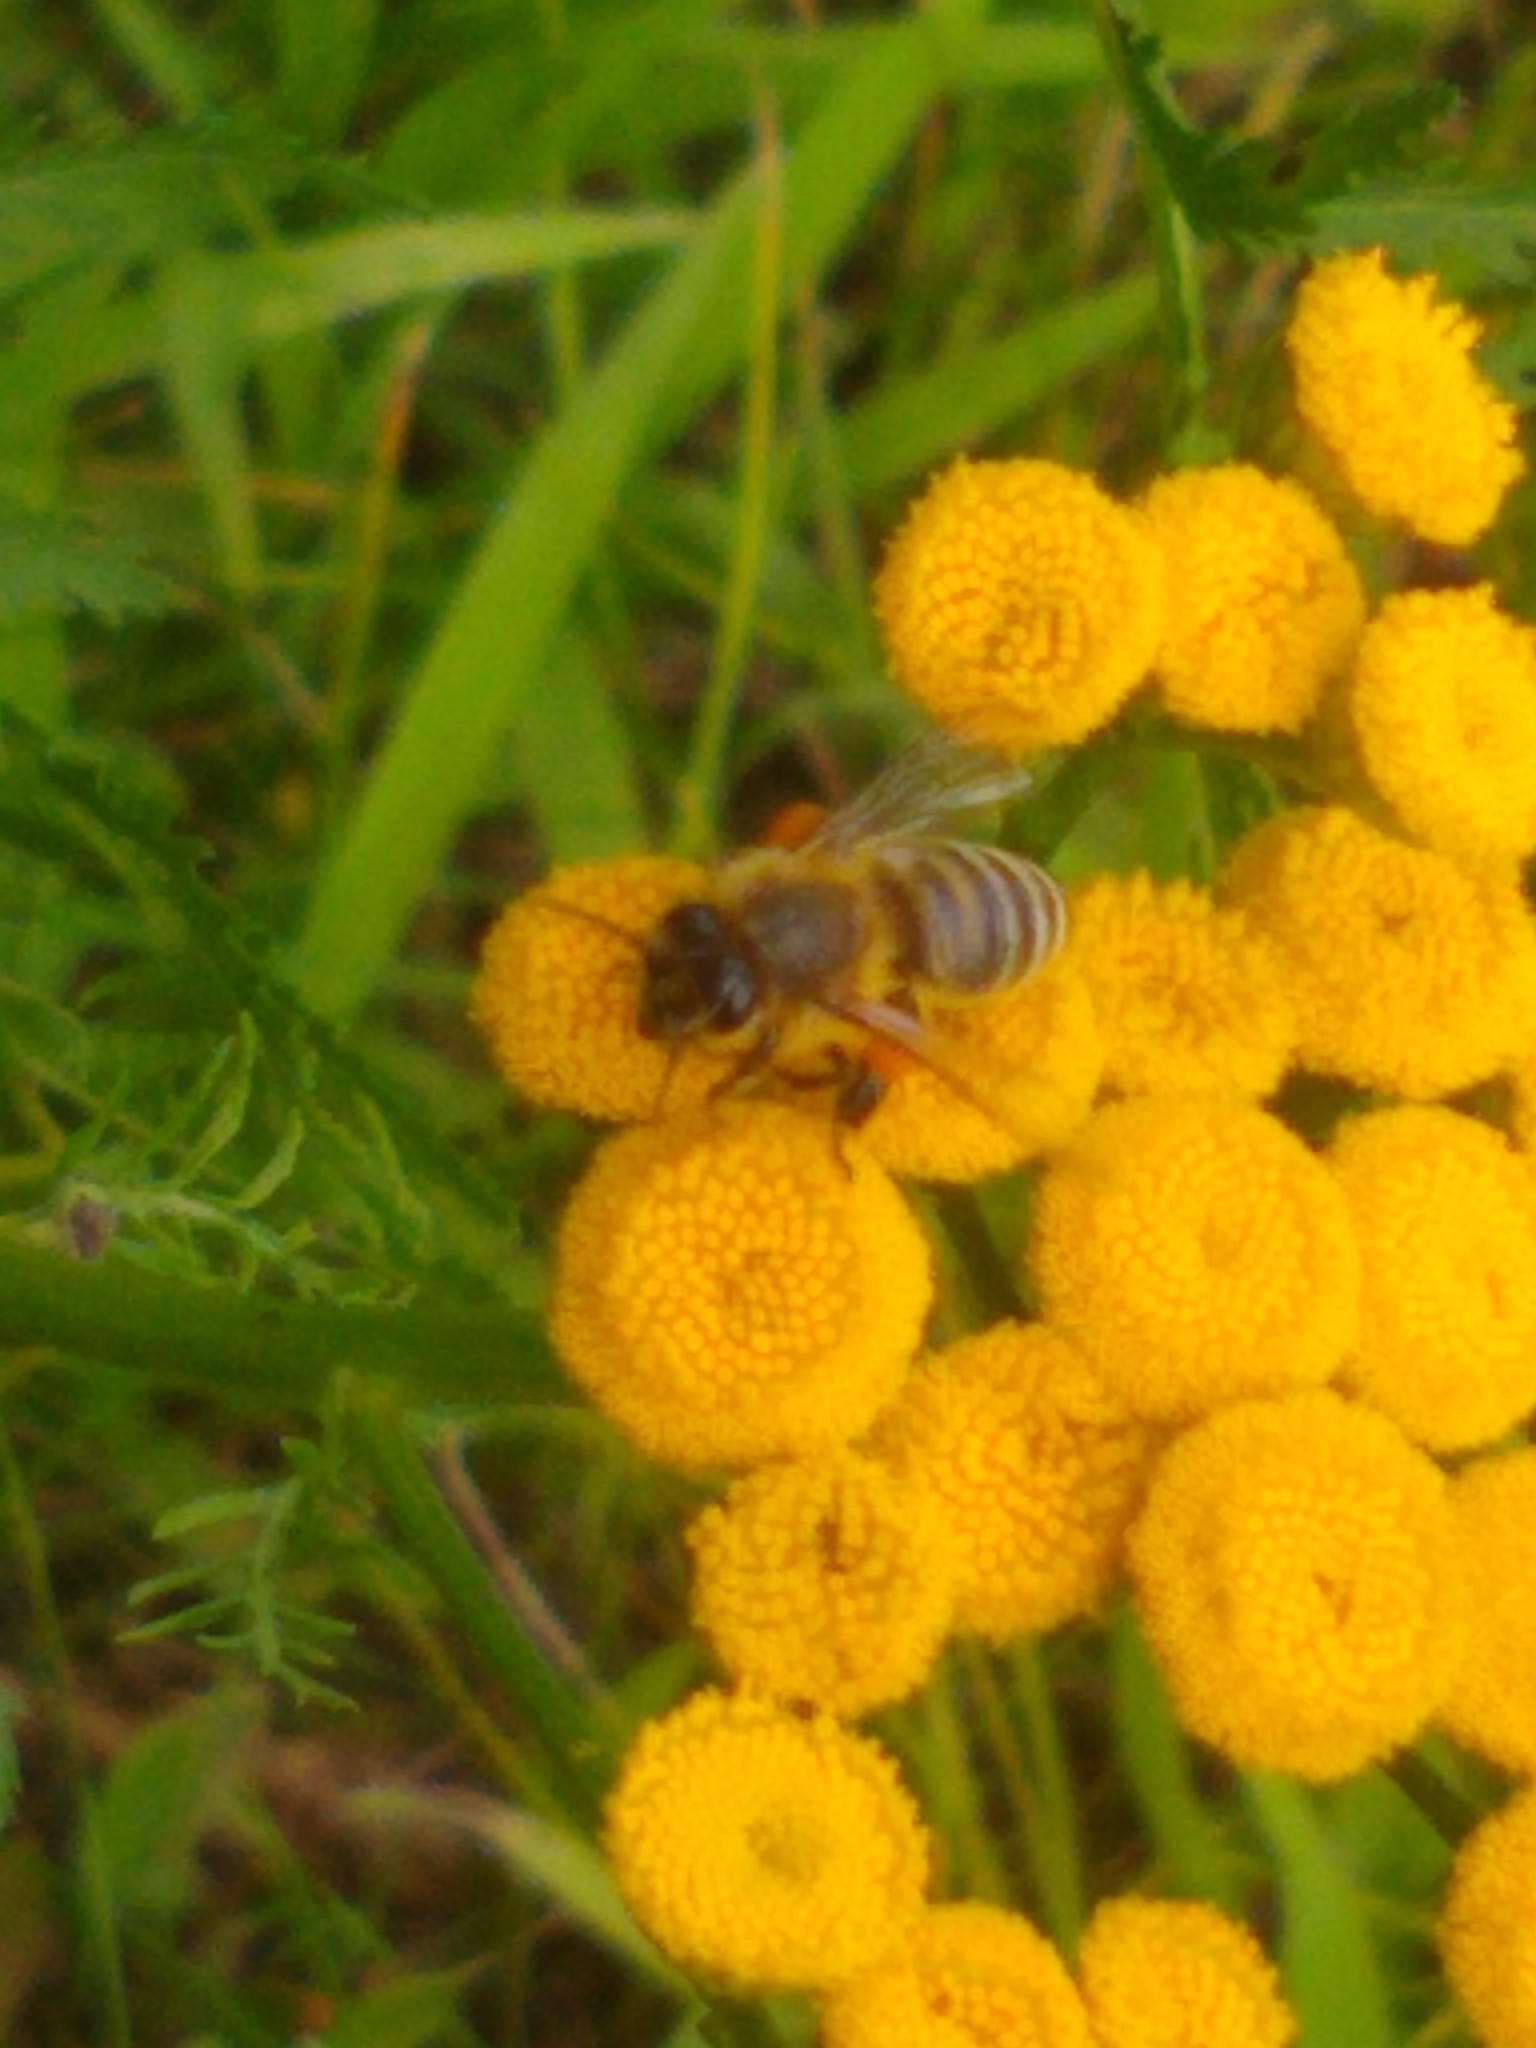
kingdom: Animalia
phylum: Arthropoda
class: Insecta
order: Hymenoptera
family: Apidae
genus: Apis
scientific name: Apis mellifera
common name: Honey bee
